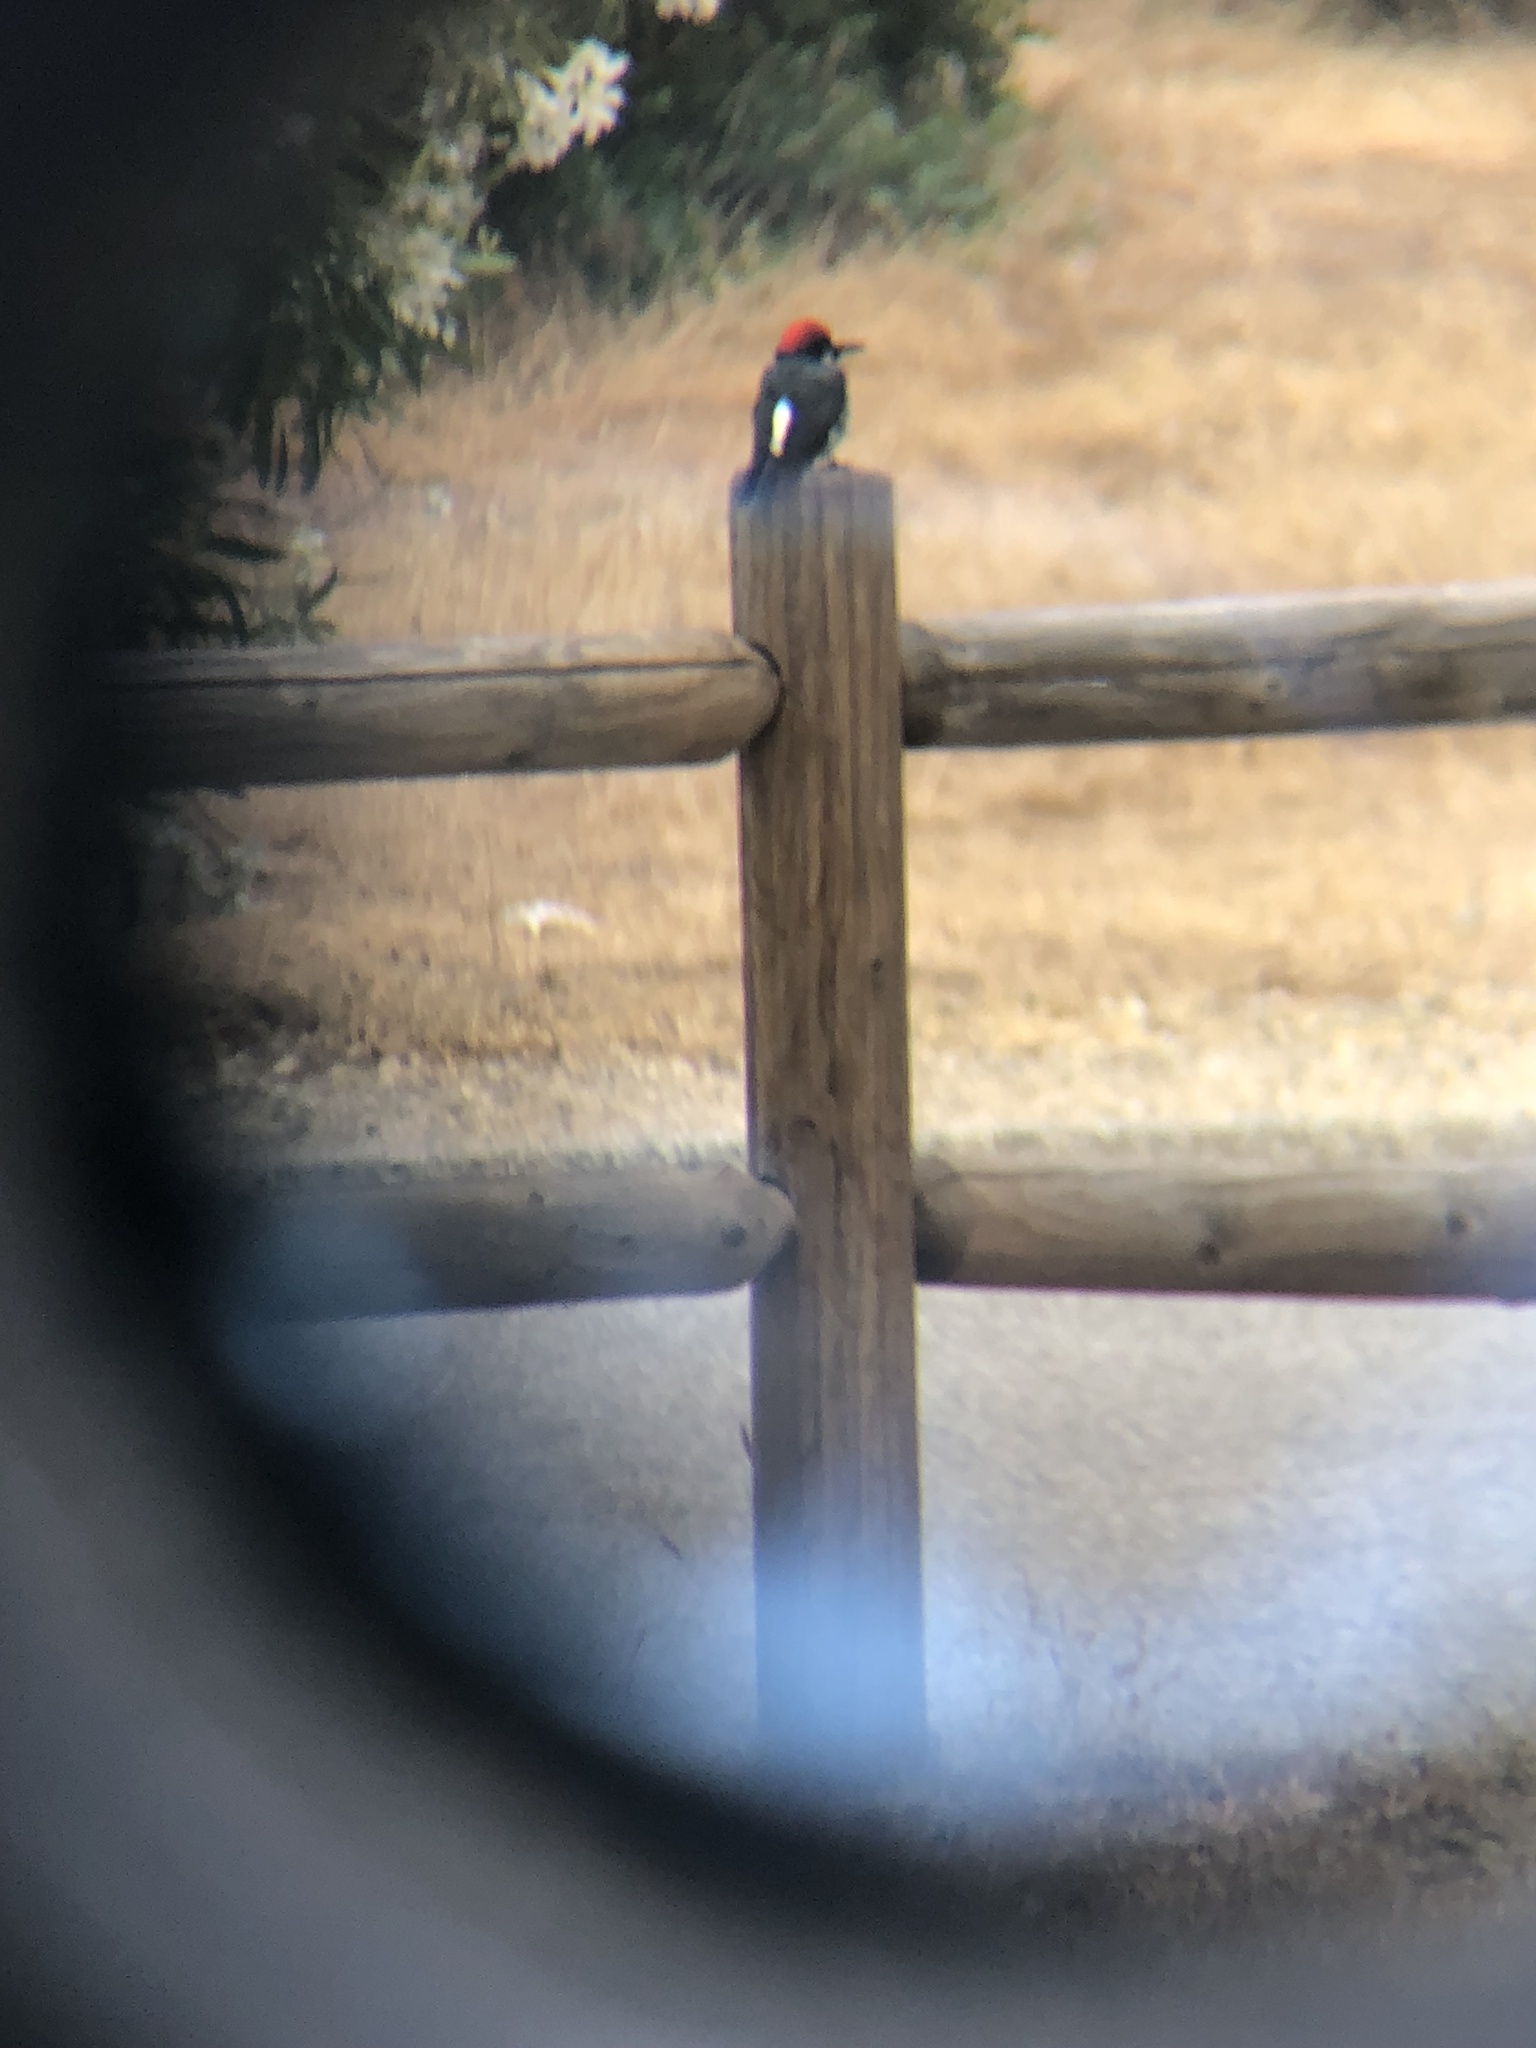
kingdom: Animalia
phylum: Chordata
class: Aves
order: Piciformes
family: Picidae
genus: Melanerpes
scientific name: Melanerpes formicivorus
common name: Acorn woodpecker
